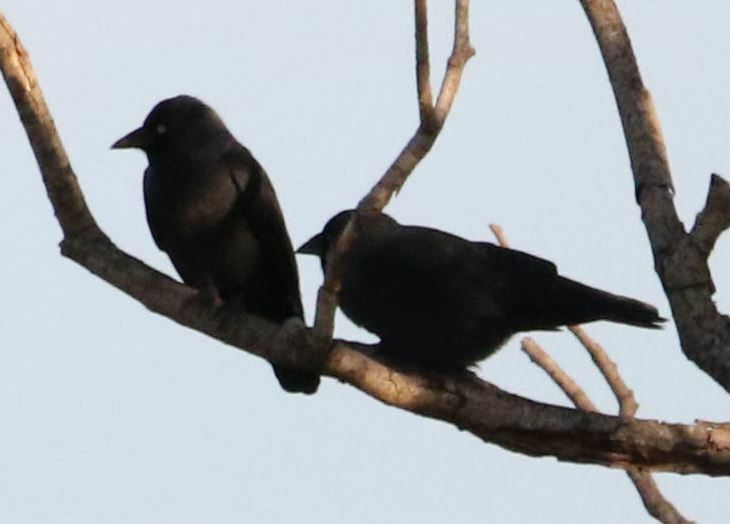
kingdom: Animalia
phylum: Chordata
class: Aves
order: Passeriformes
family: Corvidae
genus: Coloeus
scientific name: Coloeus monedula
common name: Western jackdaw
